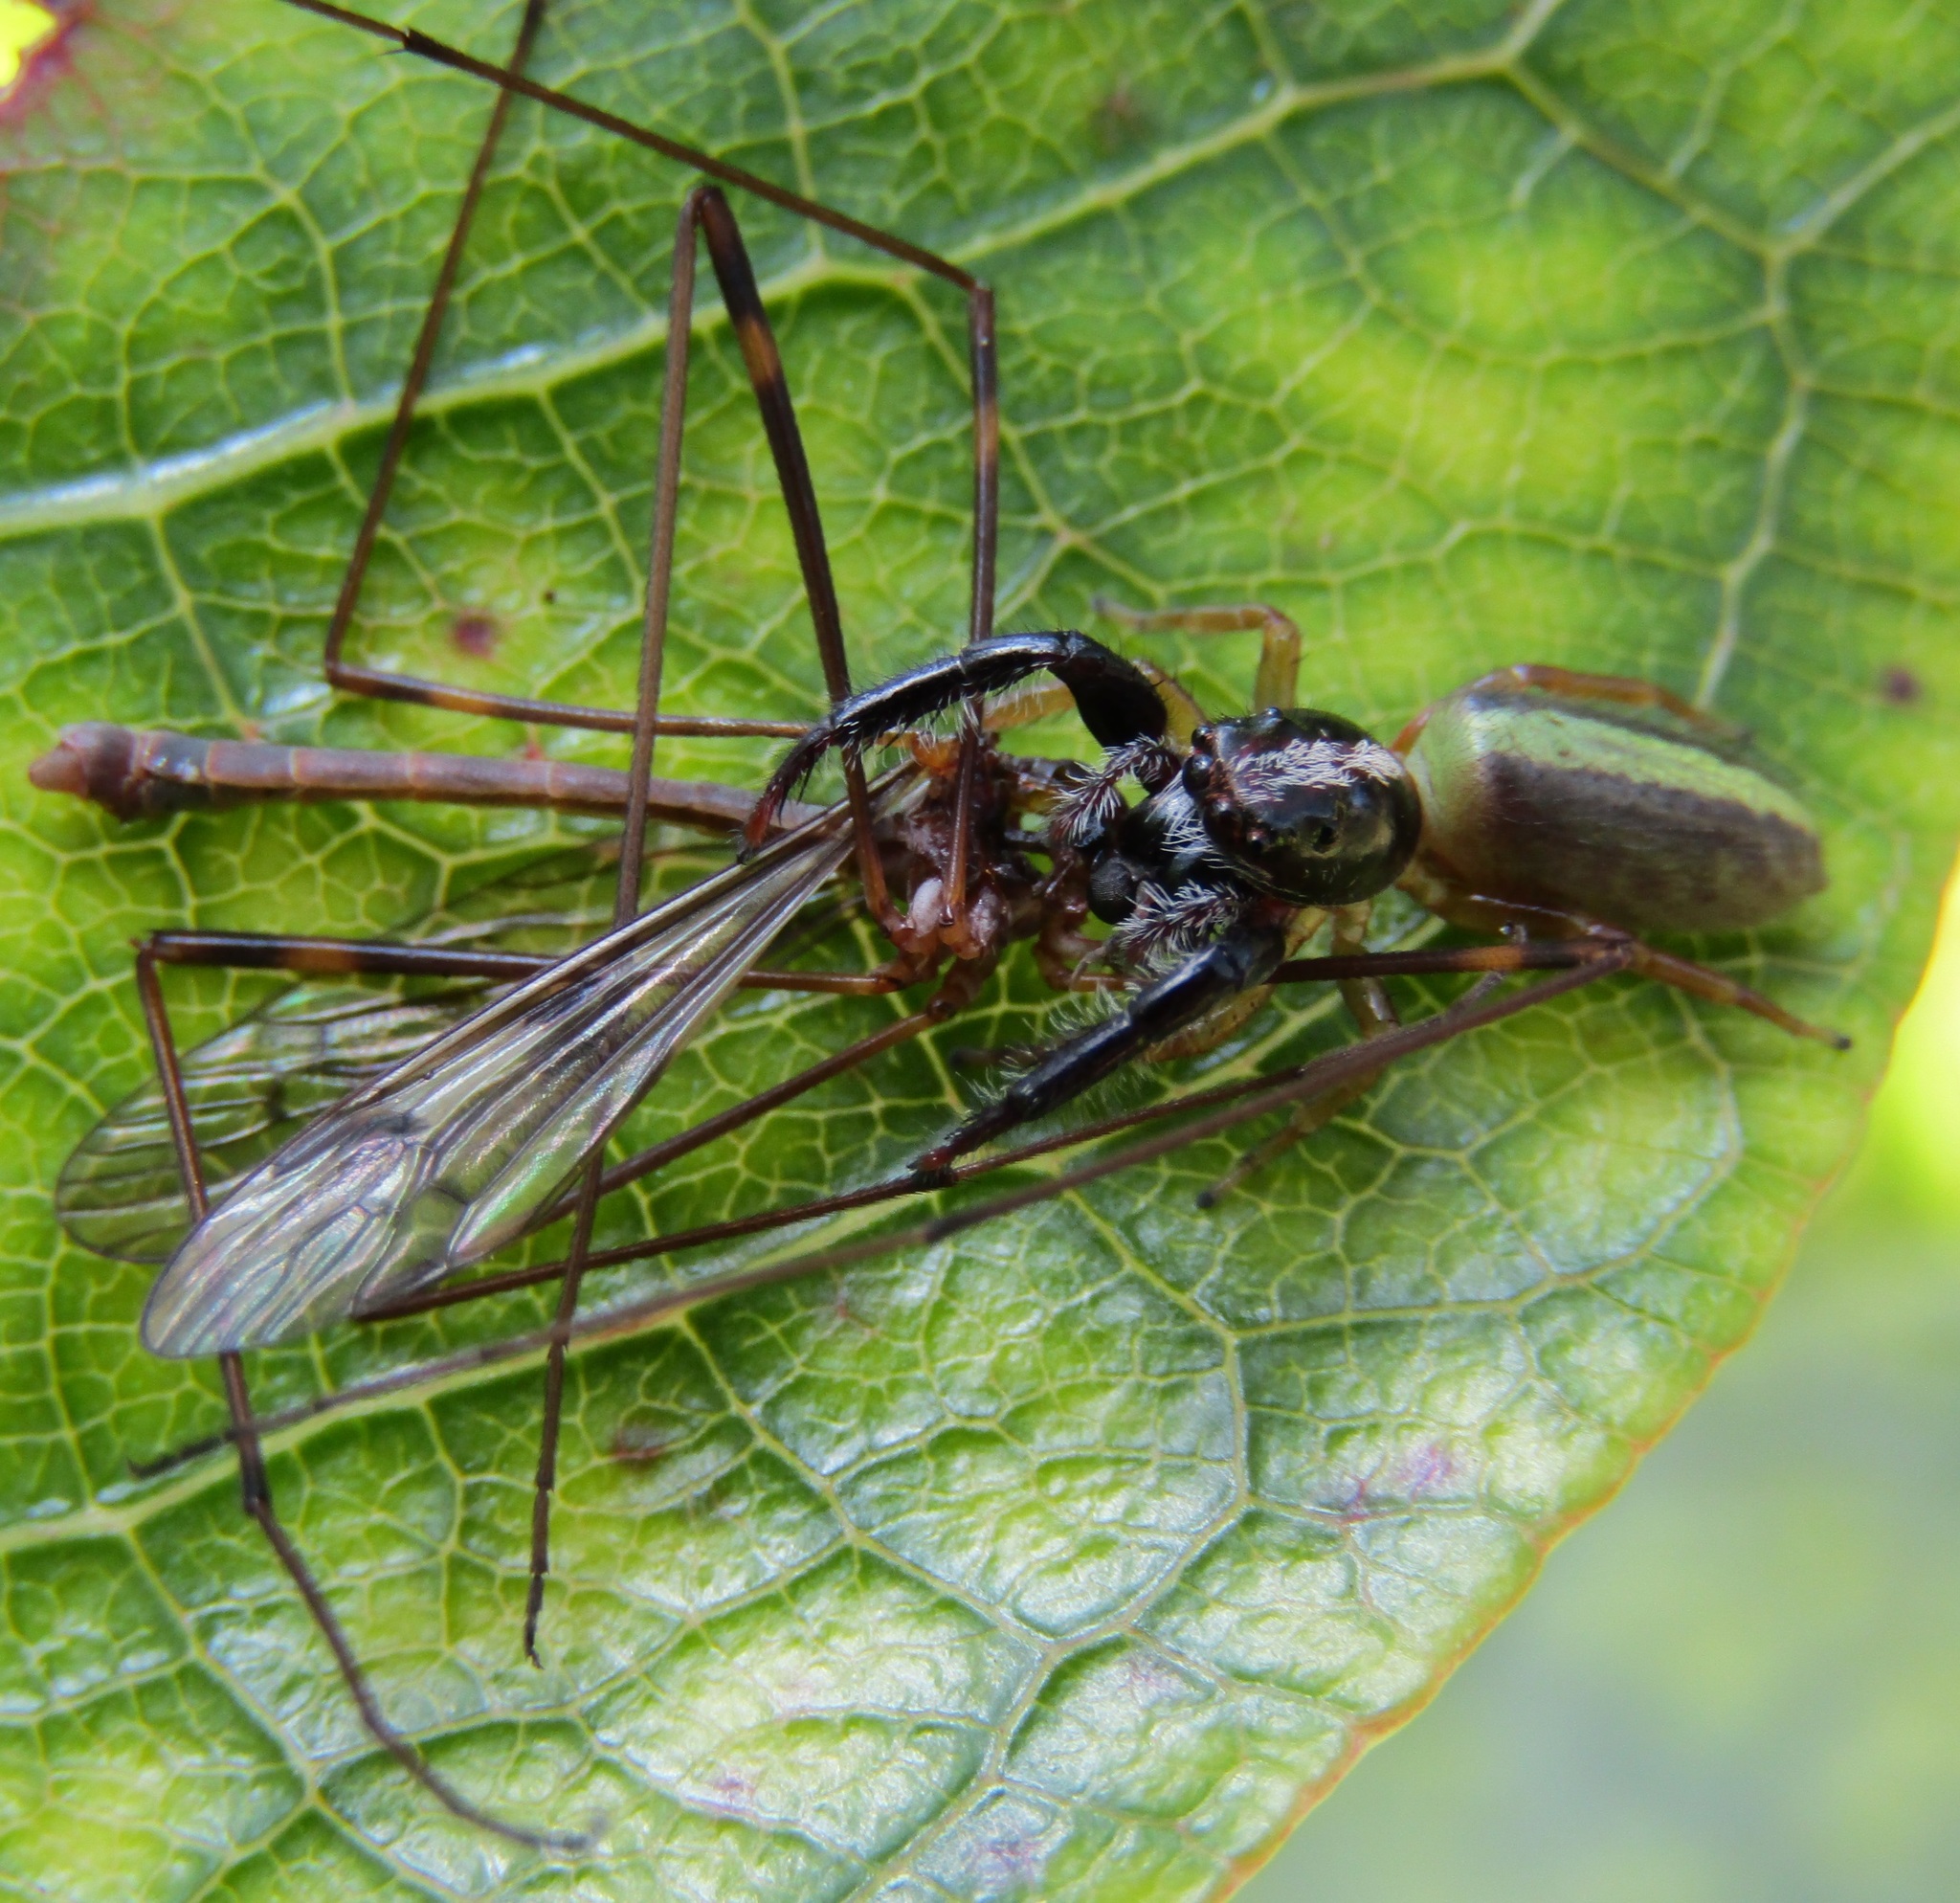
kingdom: Animalia
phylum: Arthropoda
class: Arachnida
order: Araneae
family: Salticidae
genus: Trite
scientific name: Trite planiceps
